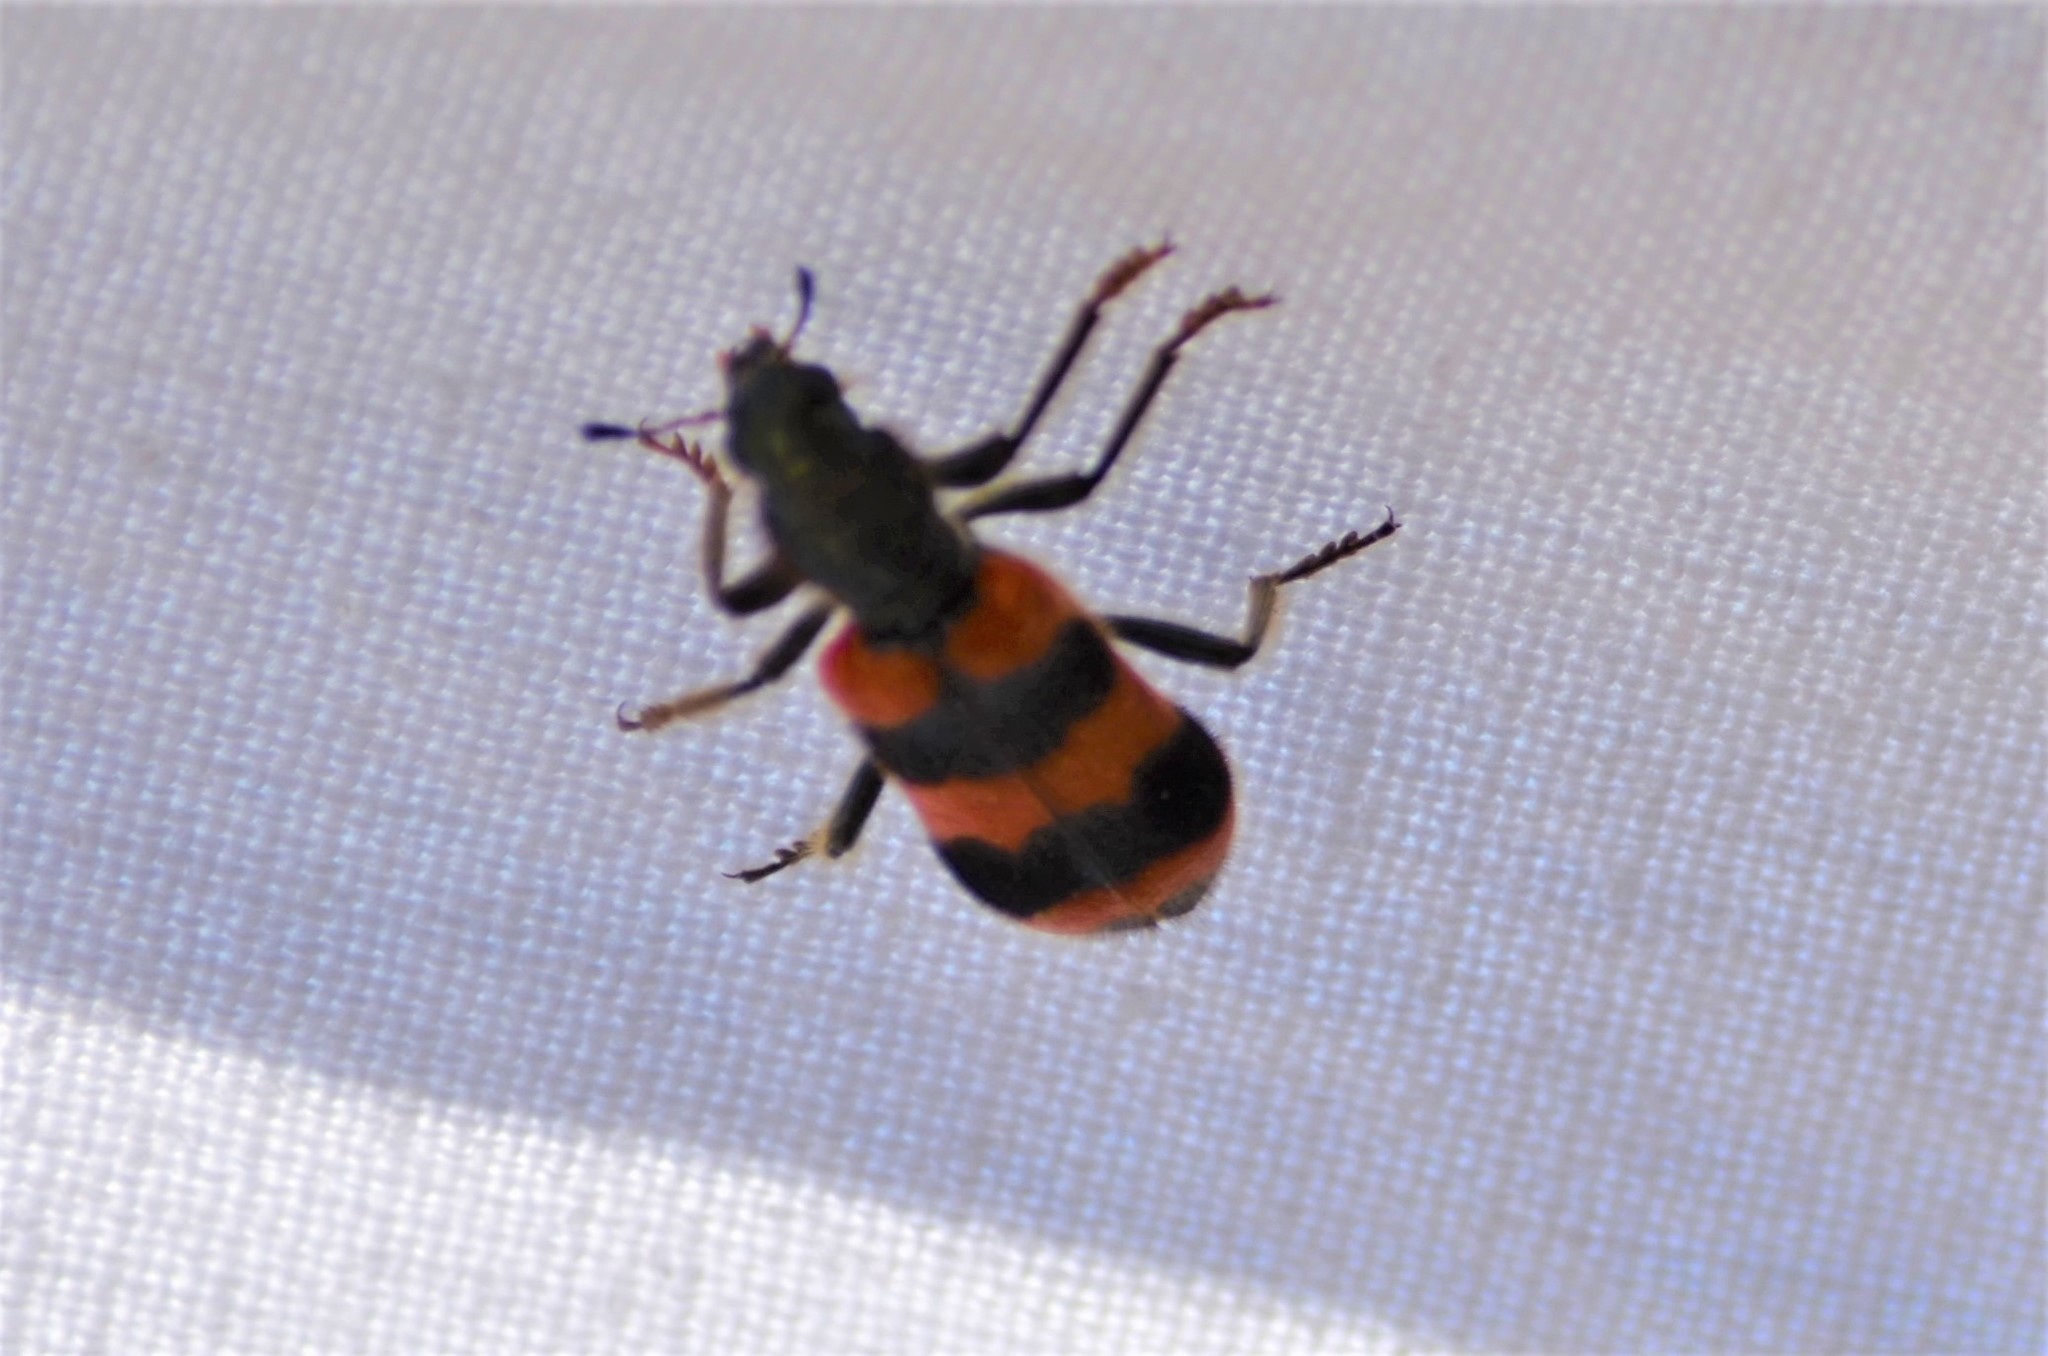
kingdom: Animalia
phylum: Arthropoda
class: Insecta
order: Coleoptera
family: Cleridae
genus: Trichodes
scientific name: Trichodes apiarius
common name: Bee-eating beetle
